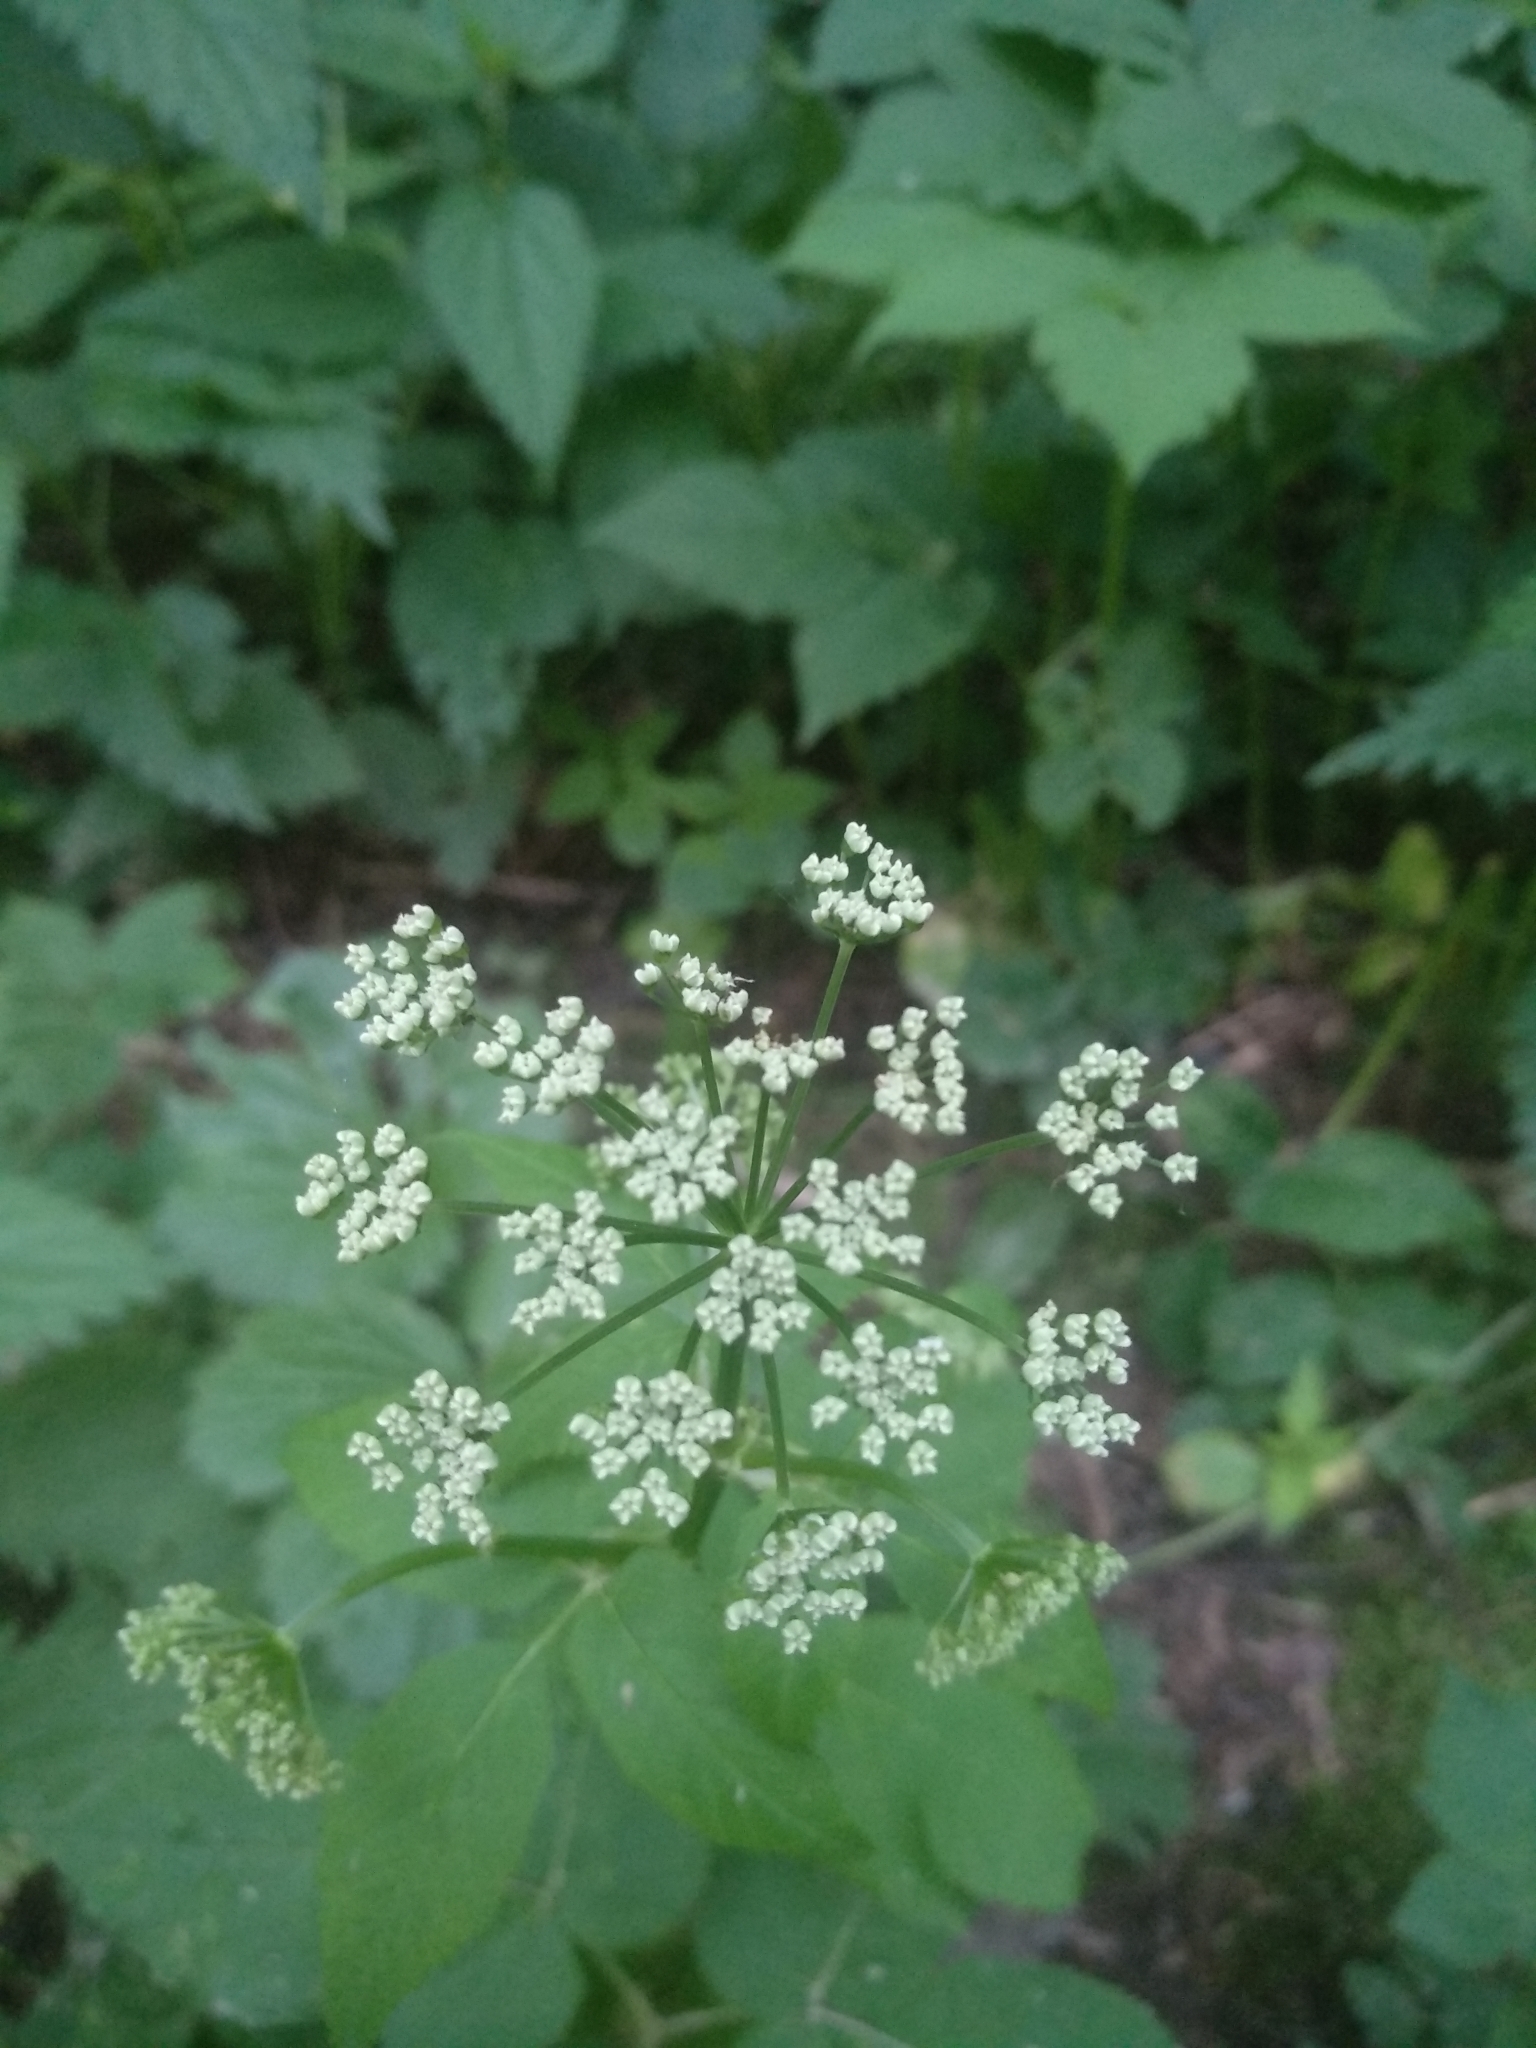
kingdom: Plantae
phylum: Tracheophyta
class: Magnoliopsida
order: Apiales
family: Apiaceae
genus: Aegopodium
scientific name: Aegopodium podagraria
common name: Ground-elder
